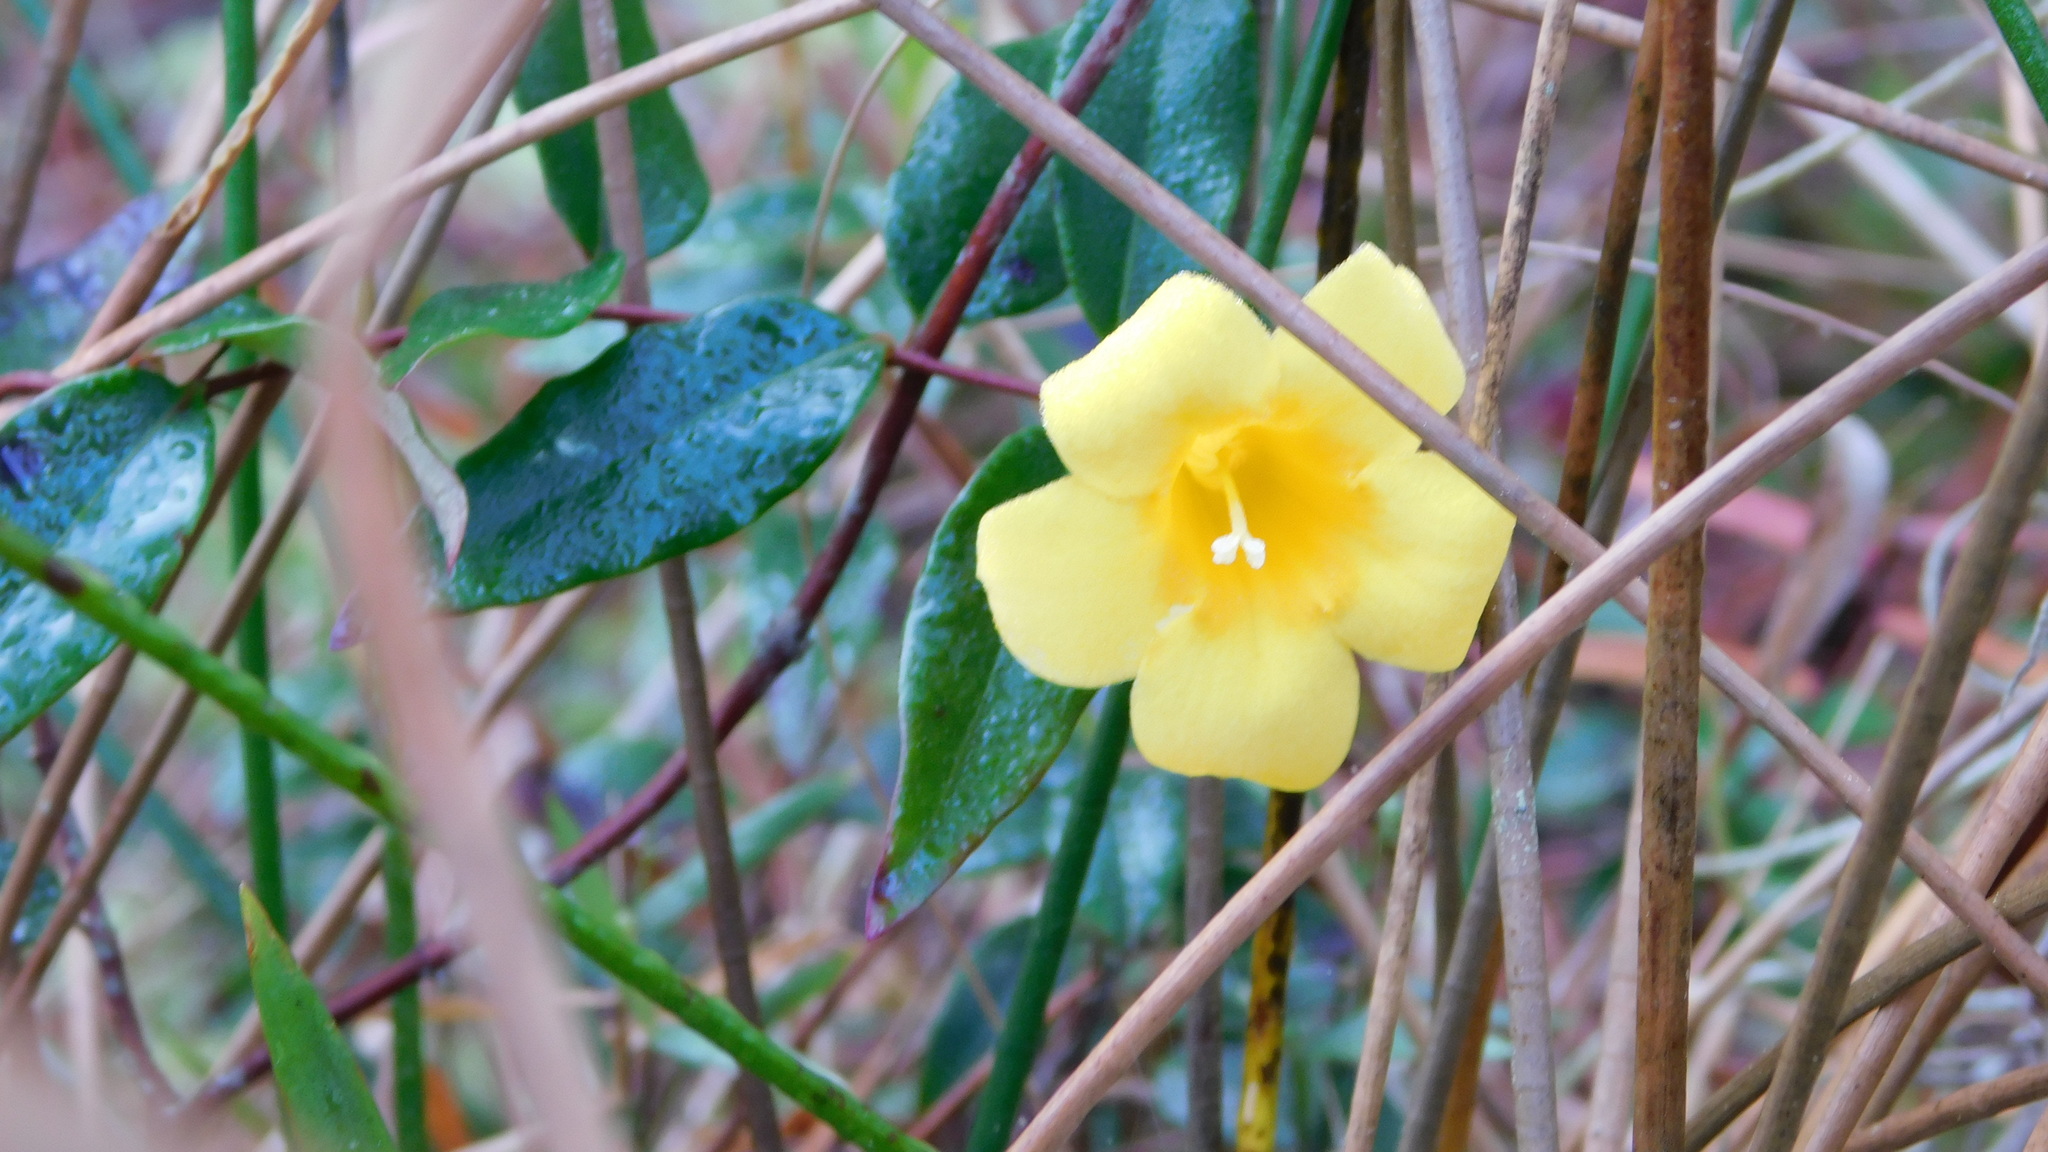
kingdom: Plantae
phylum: Tracheophyta
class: Magnoliopsida
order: Gentianales
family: Gelsemiaceae
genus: Gelsemium
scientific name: Gelsemium sempervirens
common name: Carolina-jasmine
